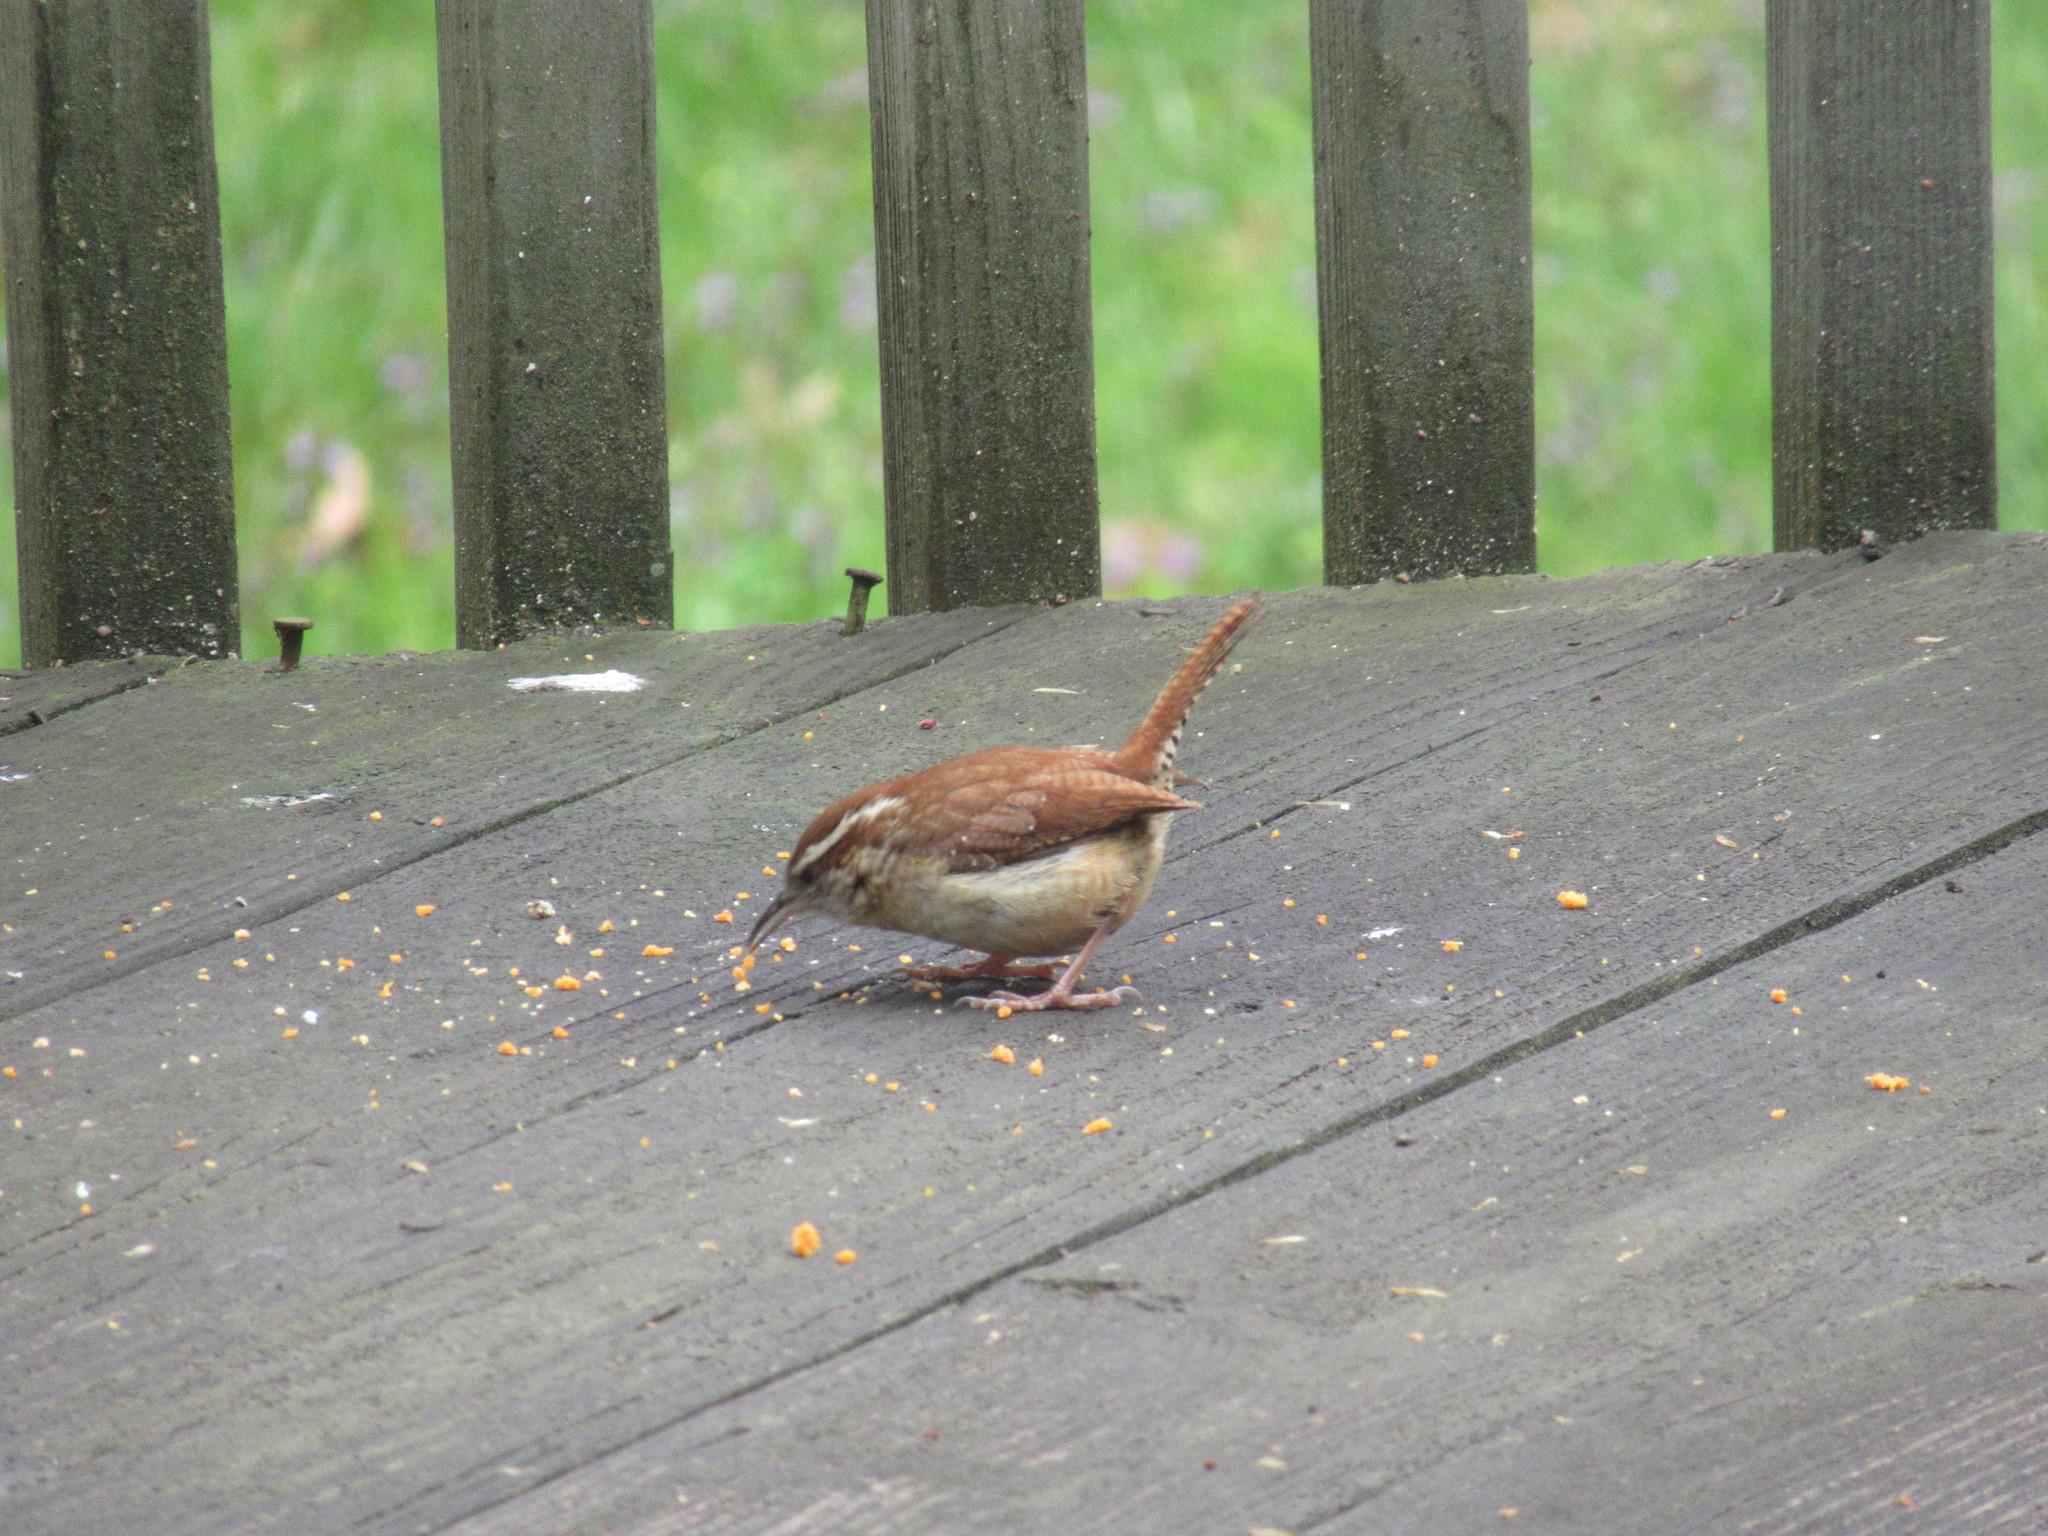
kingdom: Animalia
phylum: Chordata
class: Aves
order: Passeriformes
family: Troglodytidae
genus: Thryothorus
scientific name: Thryothorus ludovicianus
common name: Carolina wren
